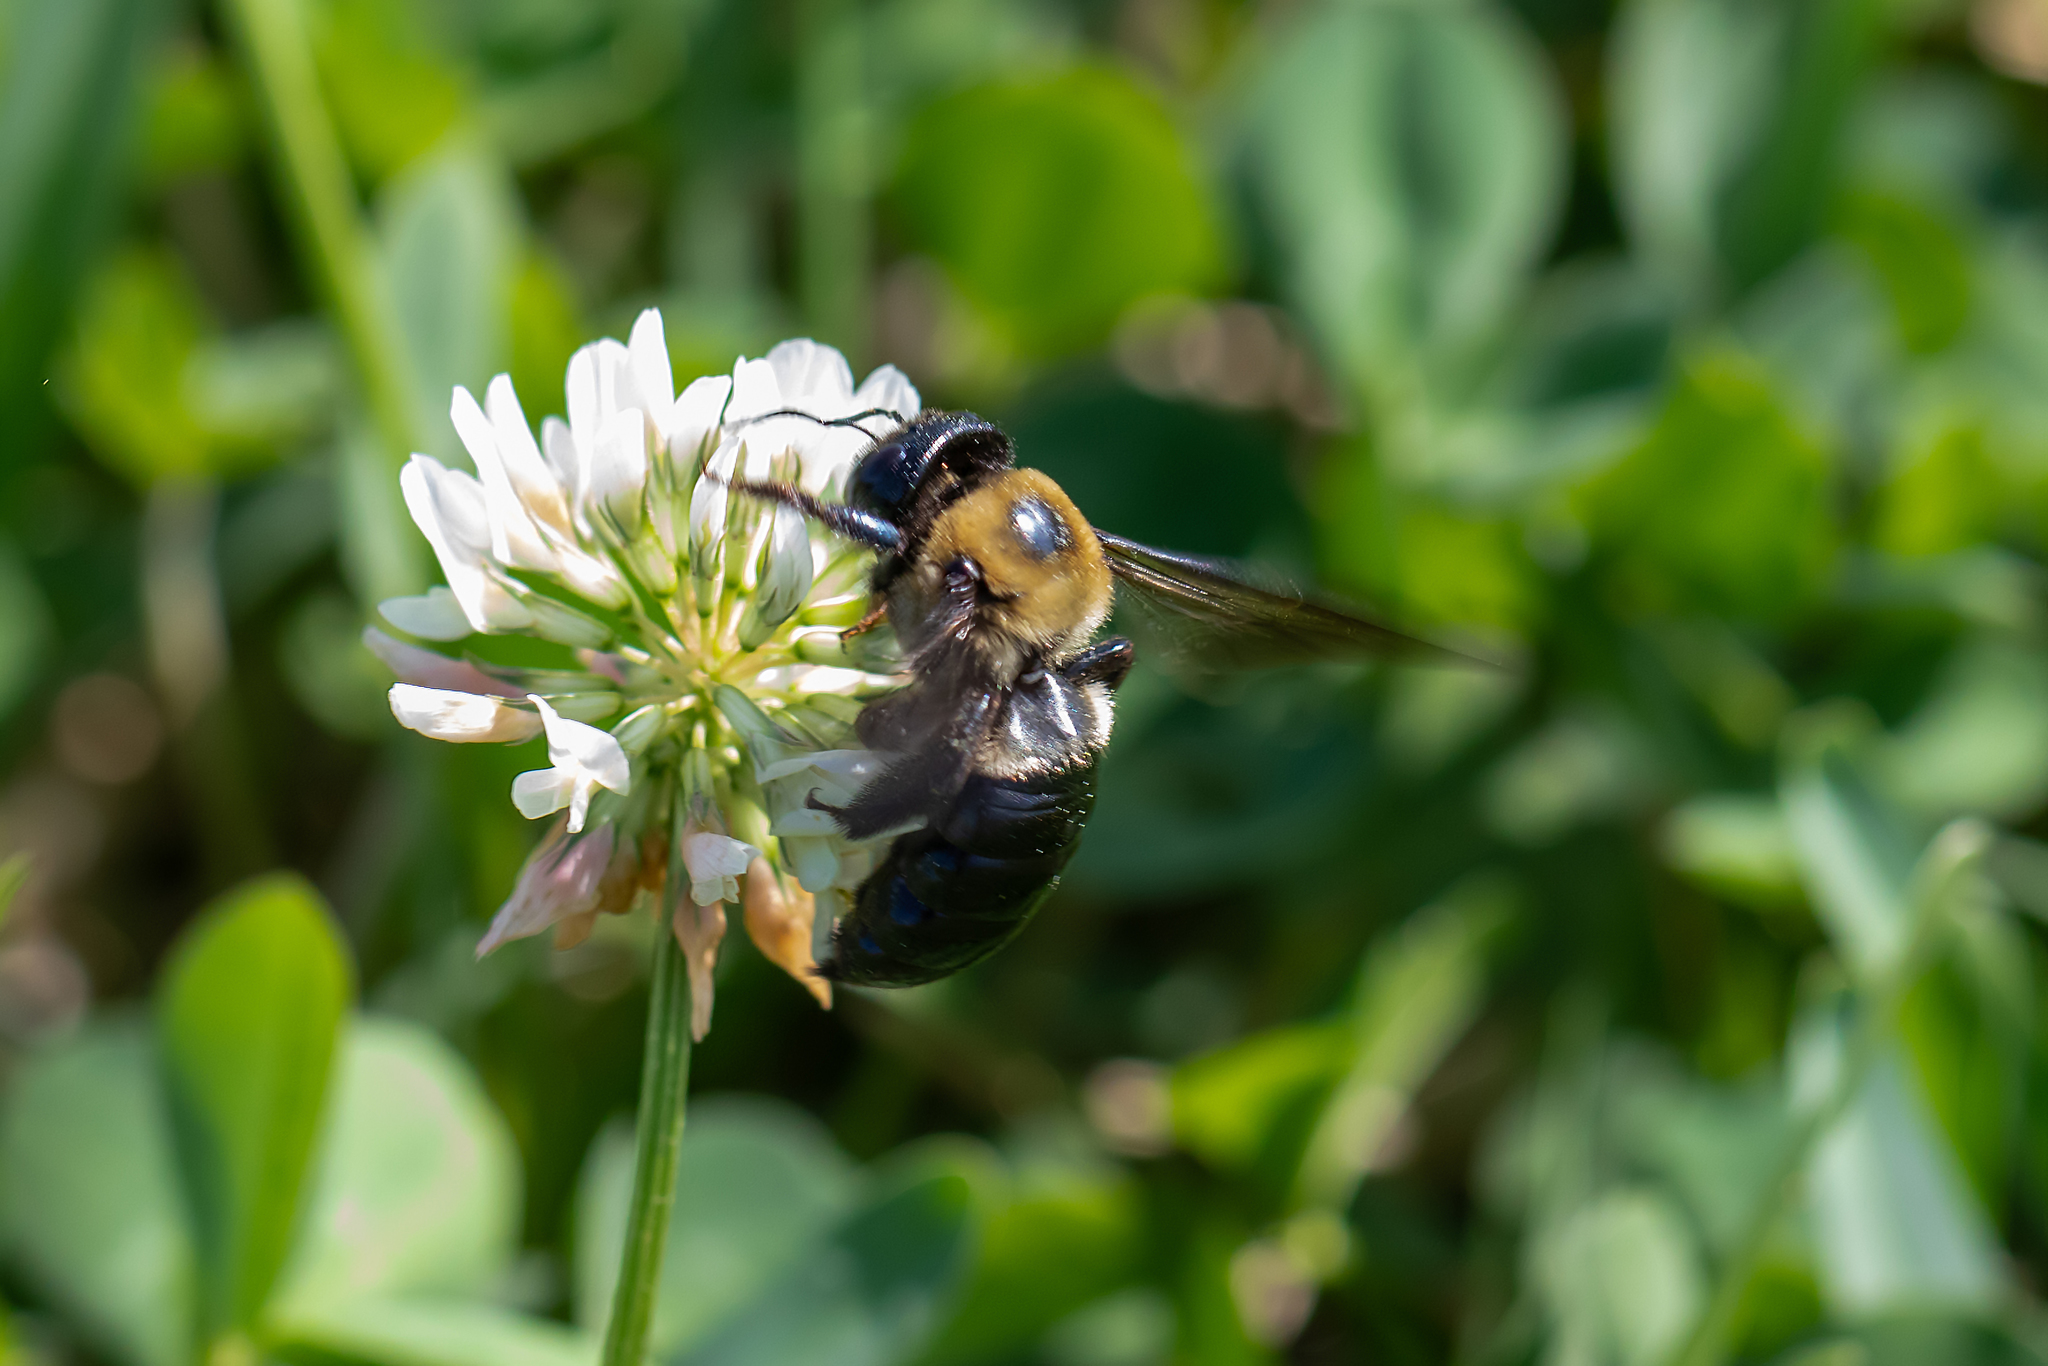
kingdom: Animalia
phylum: Arthropoda
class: Insecta
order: Hymenoptera
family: Apidae
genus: Xylocopa
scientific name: Xylocopa virginica
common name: Carpenter bee
